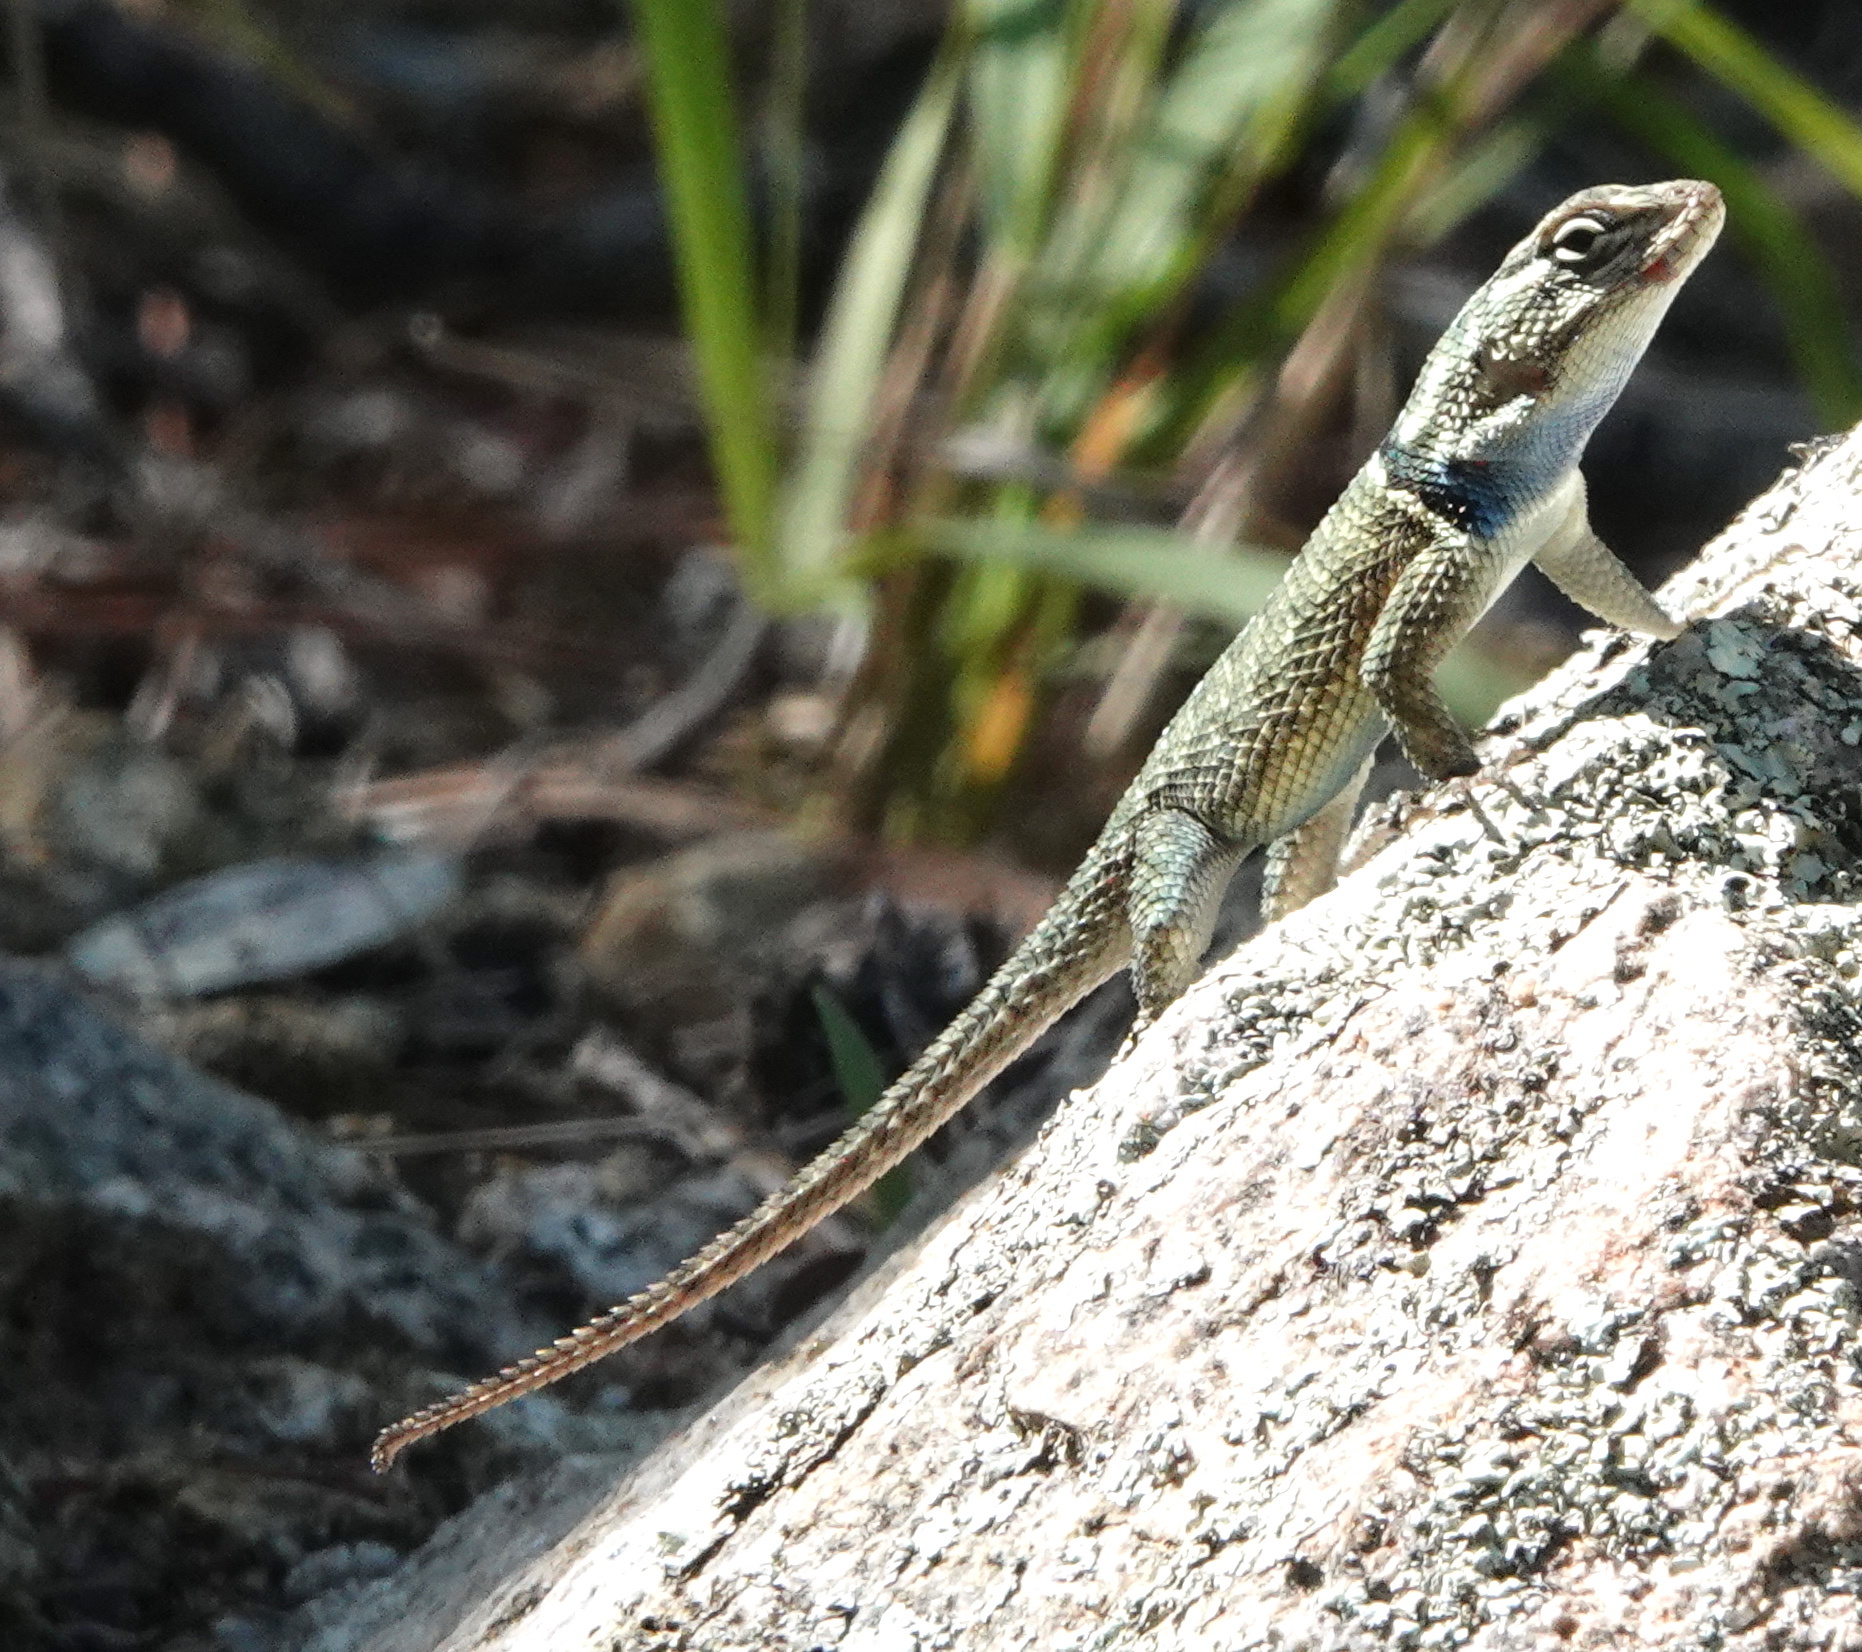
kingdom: Animalia
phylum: Chordata
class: Squamata
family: Phrynosomatidae
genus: Sceloporus
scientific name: Sceloporus jarrovii
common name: Yarrow's spiny lizard
